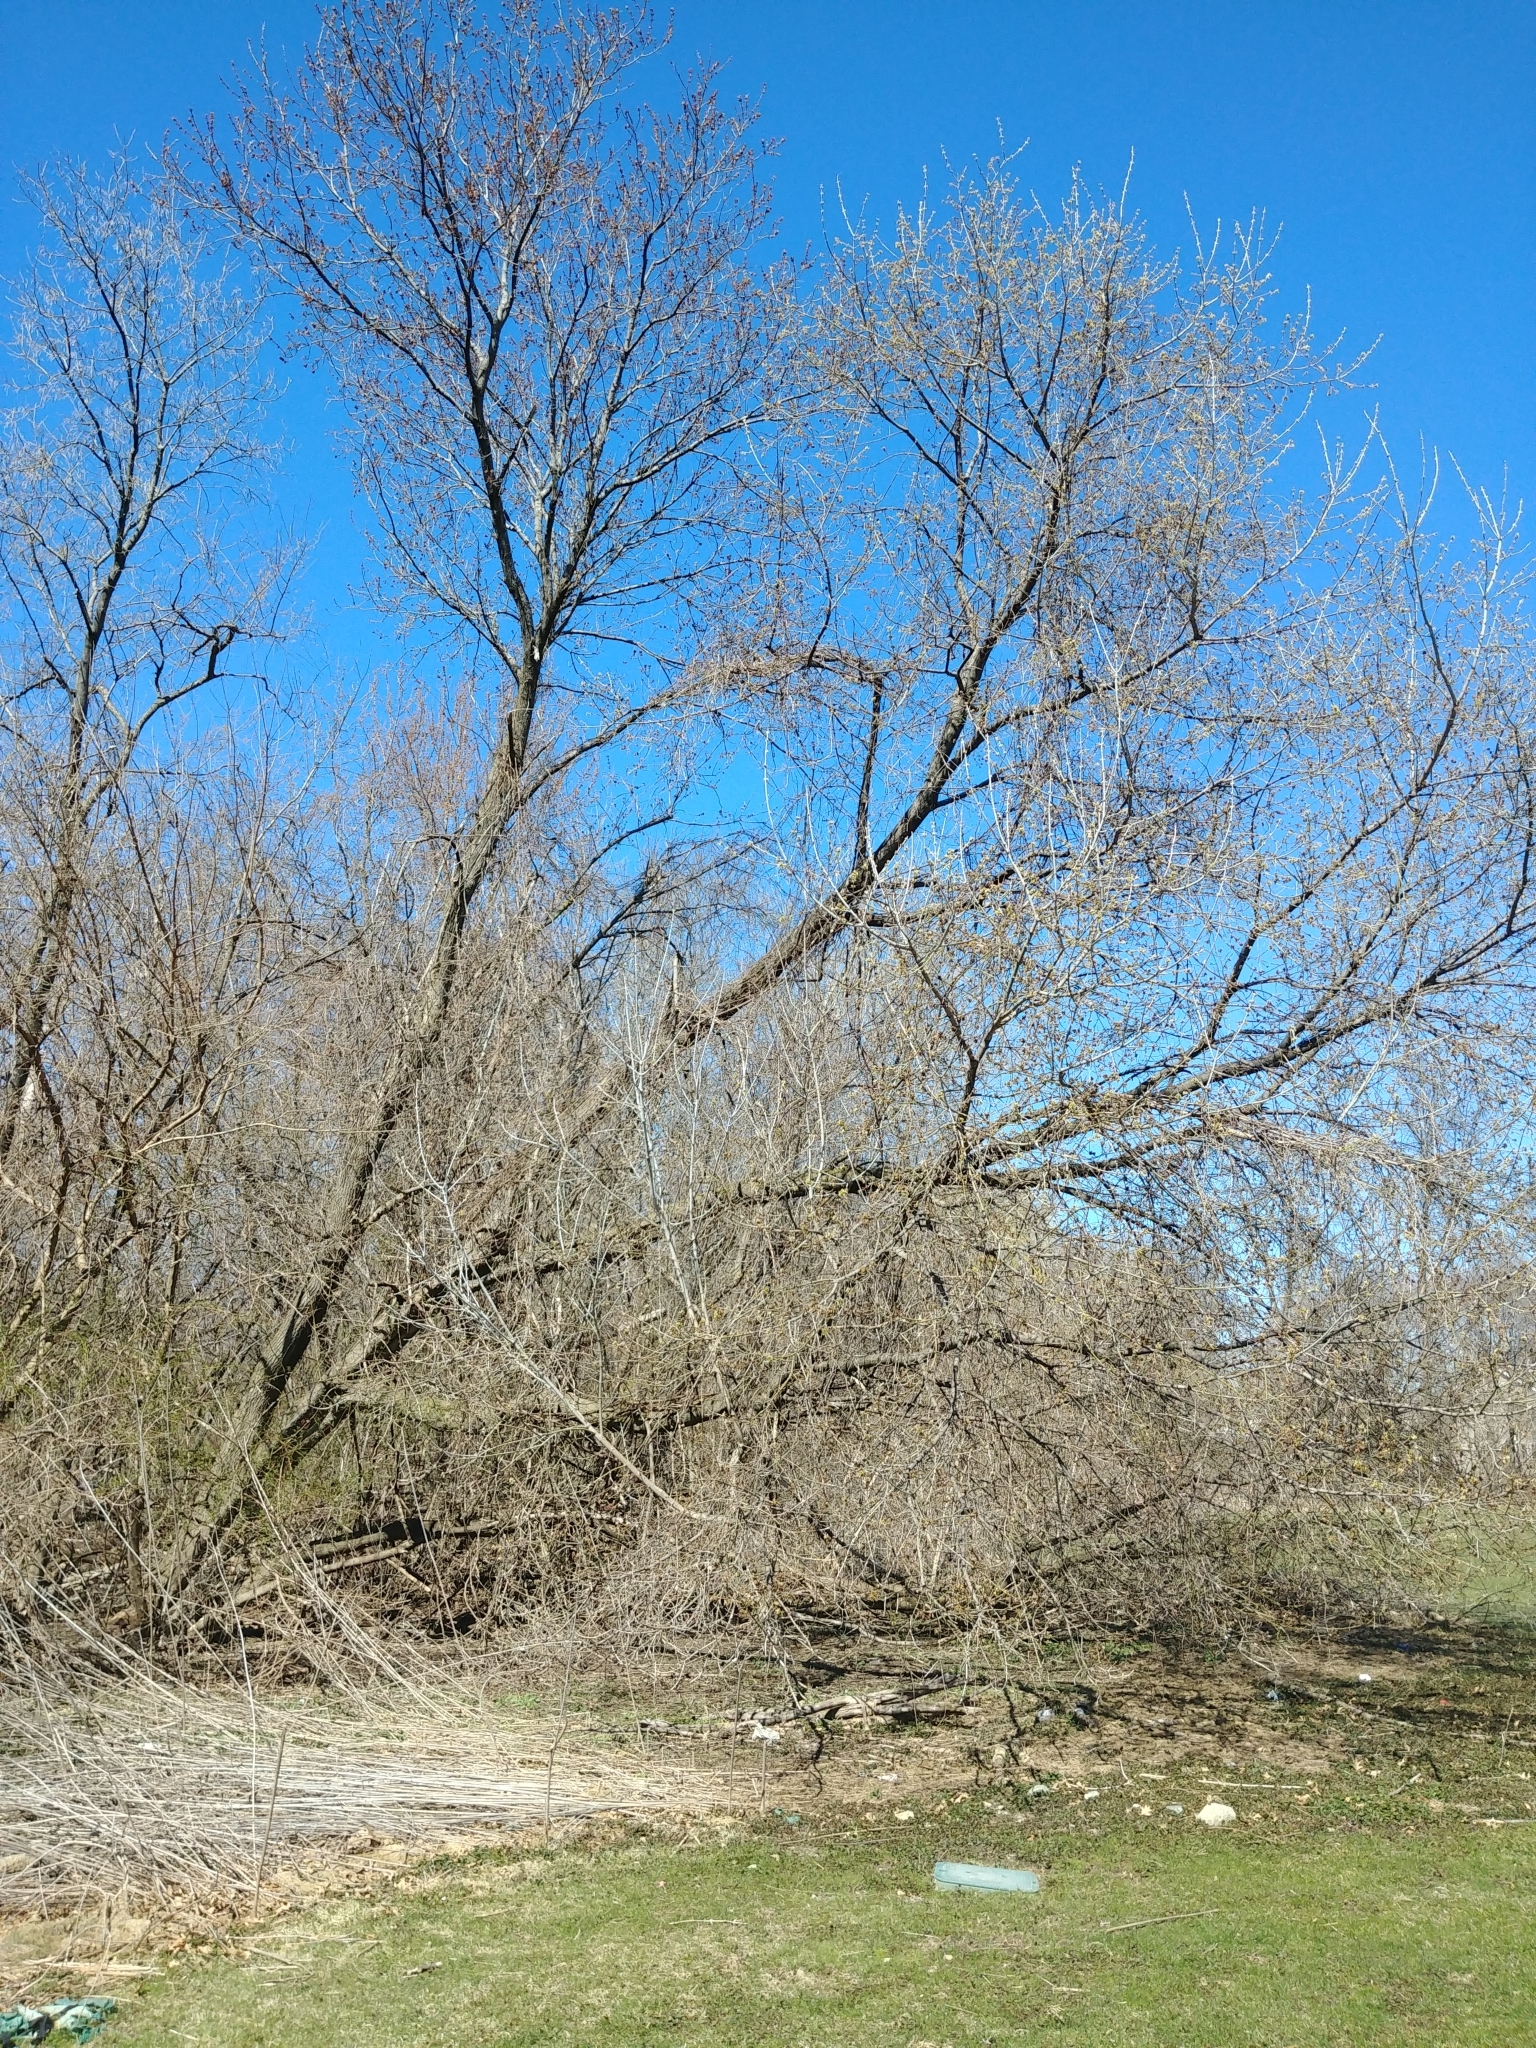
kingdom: Plantae
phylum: Tracheophyta
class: Magnoliopsida
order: Sapindales
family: Sapindaceae
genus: Acer
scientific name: Acer negundo
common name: Ashleaf maple
